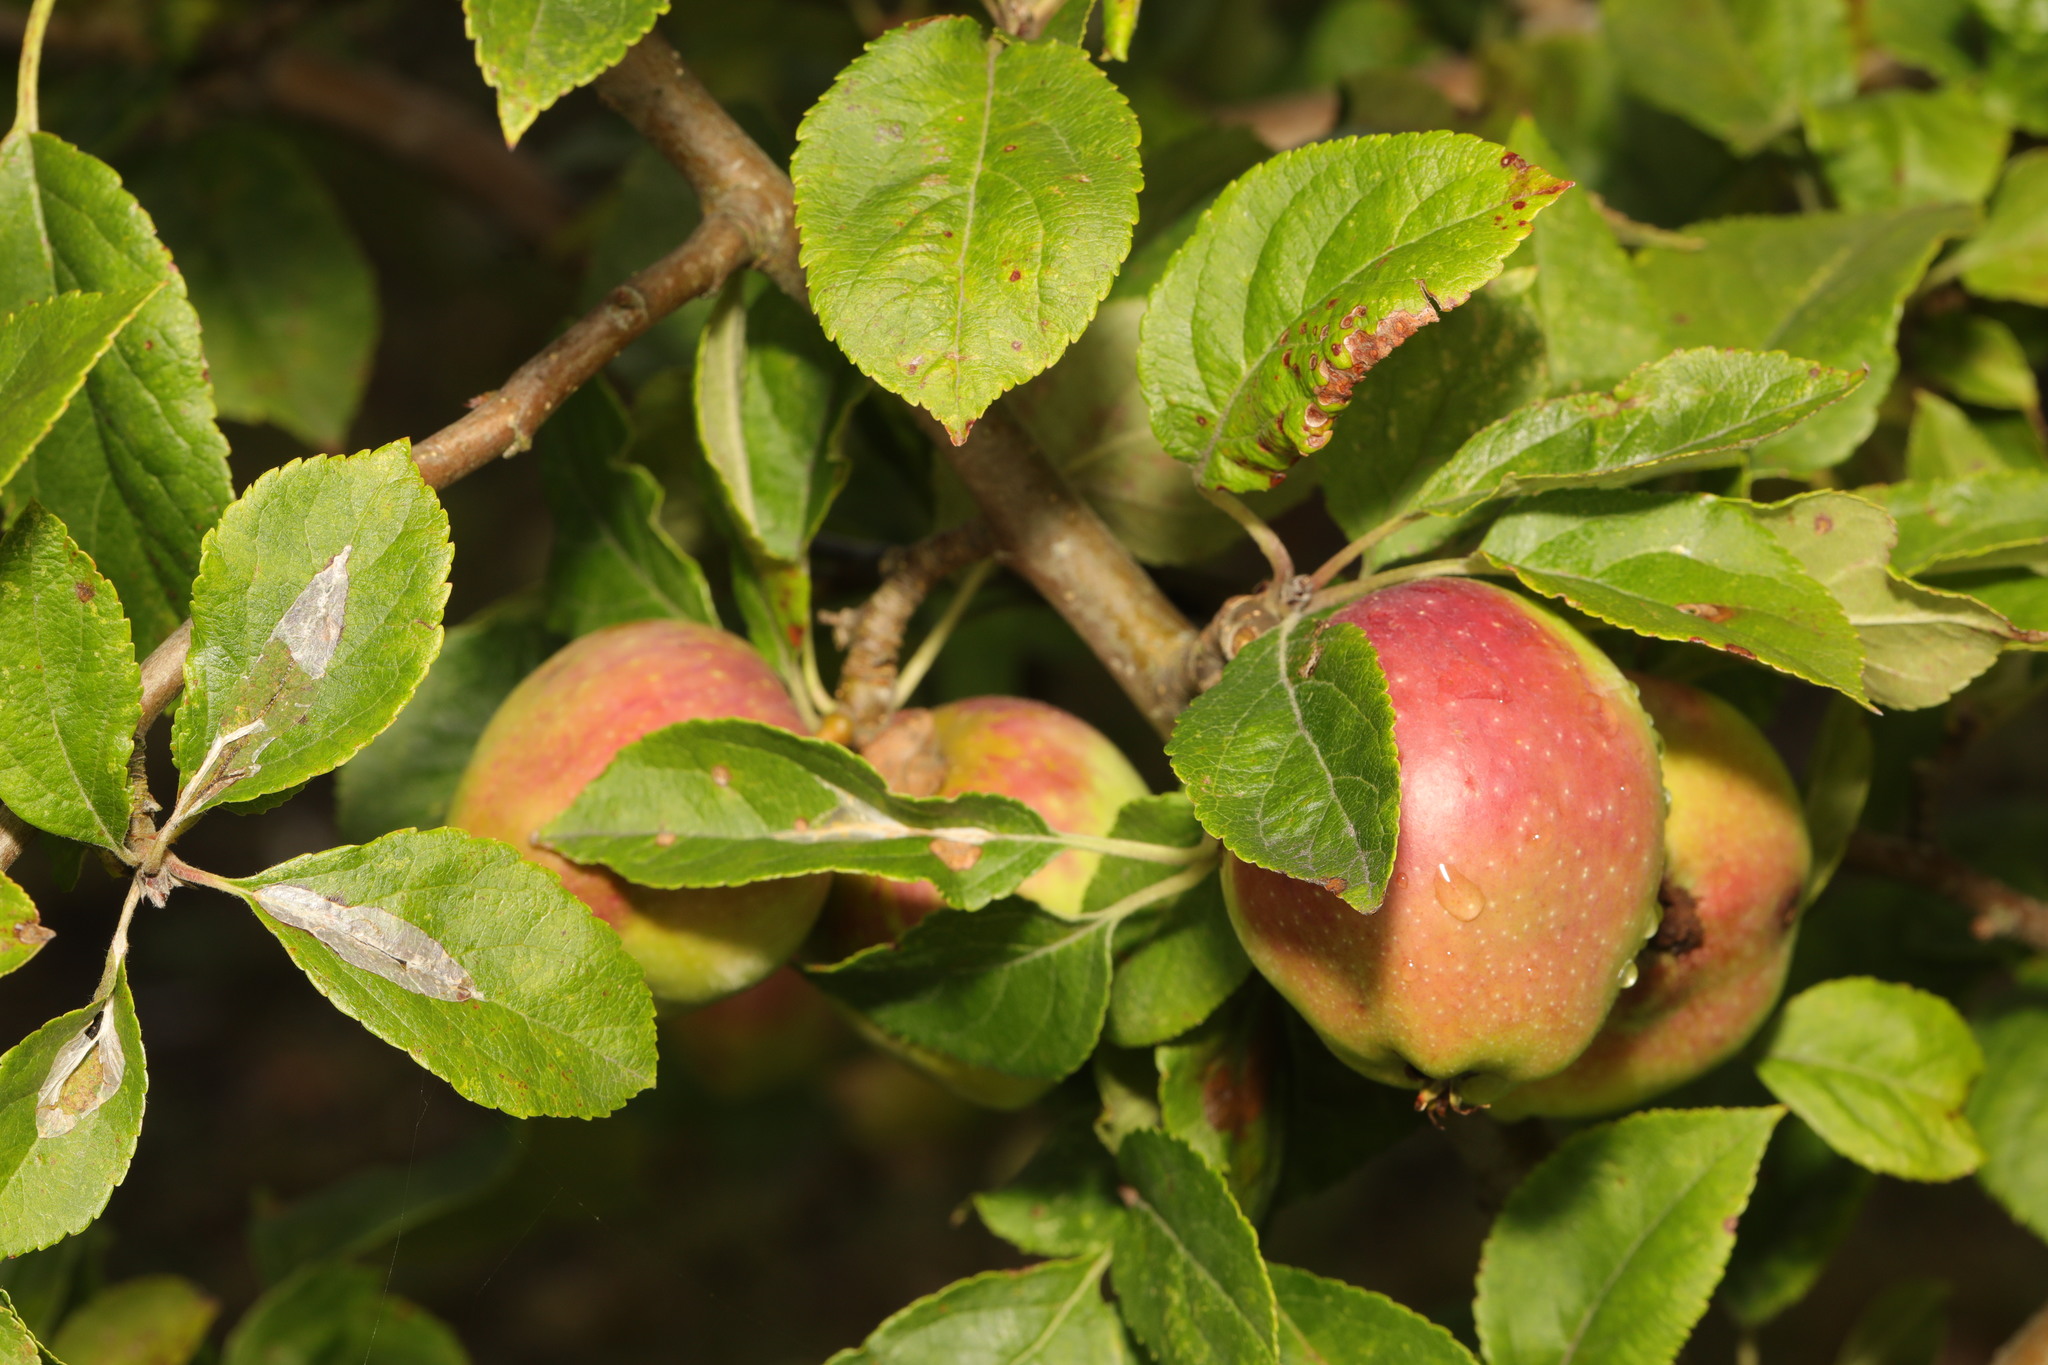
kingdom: Plantae
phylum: Tracheophyta
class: Magnoliopsida
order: Rosales
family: Rosaceae
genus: Malus
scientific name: Malus domestica
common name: Apple
